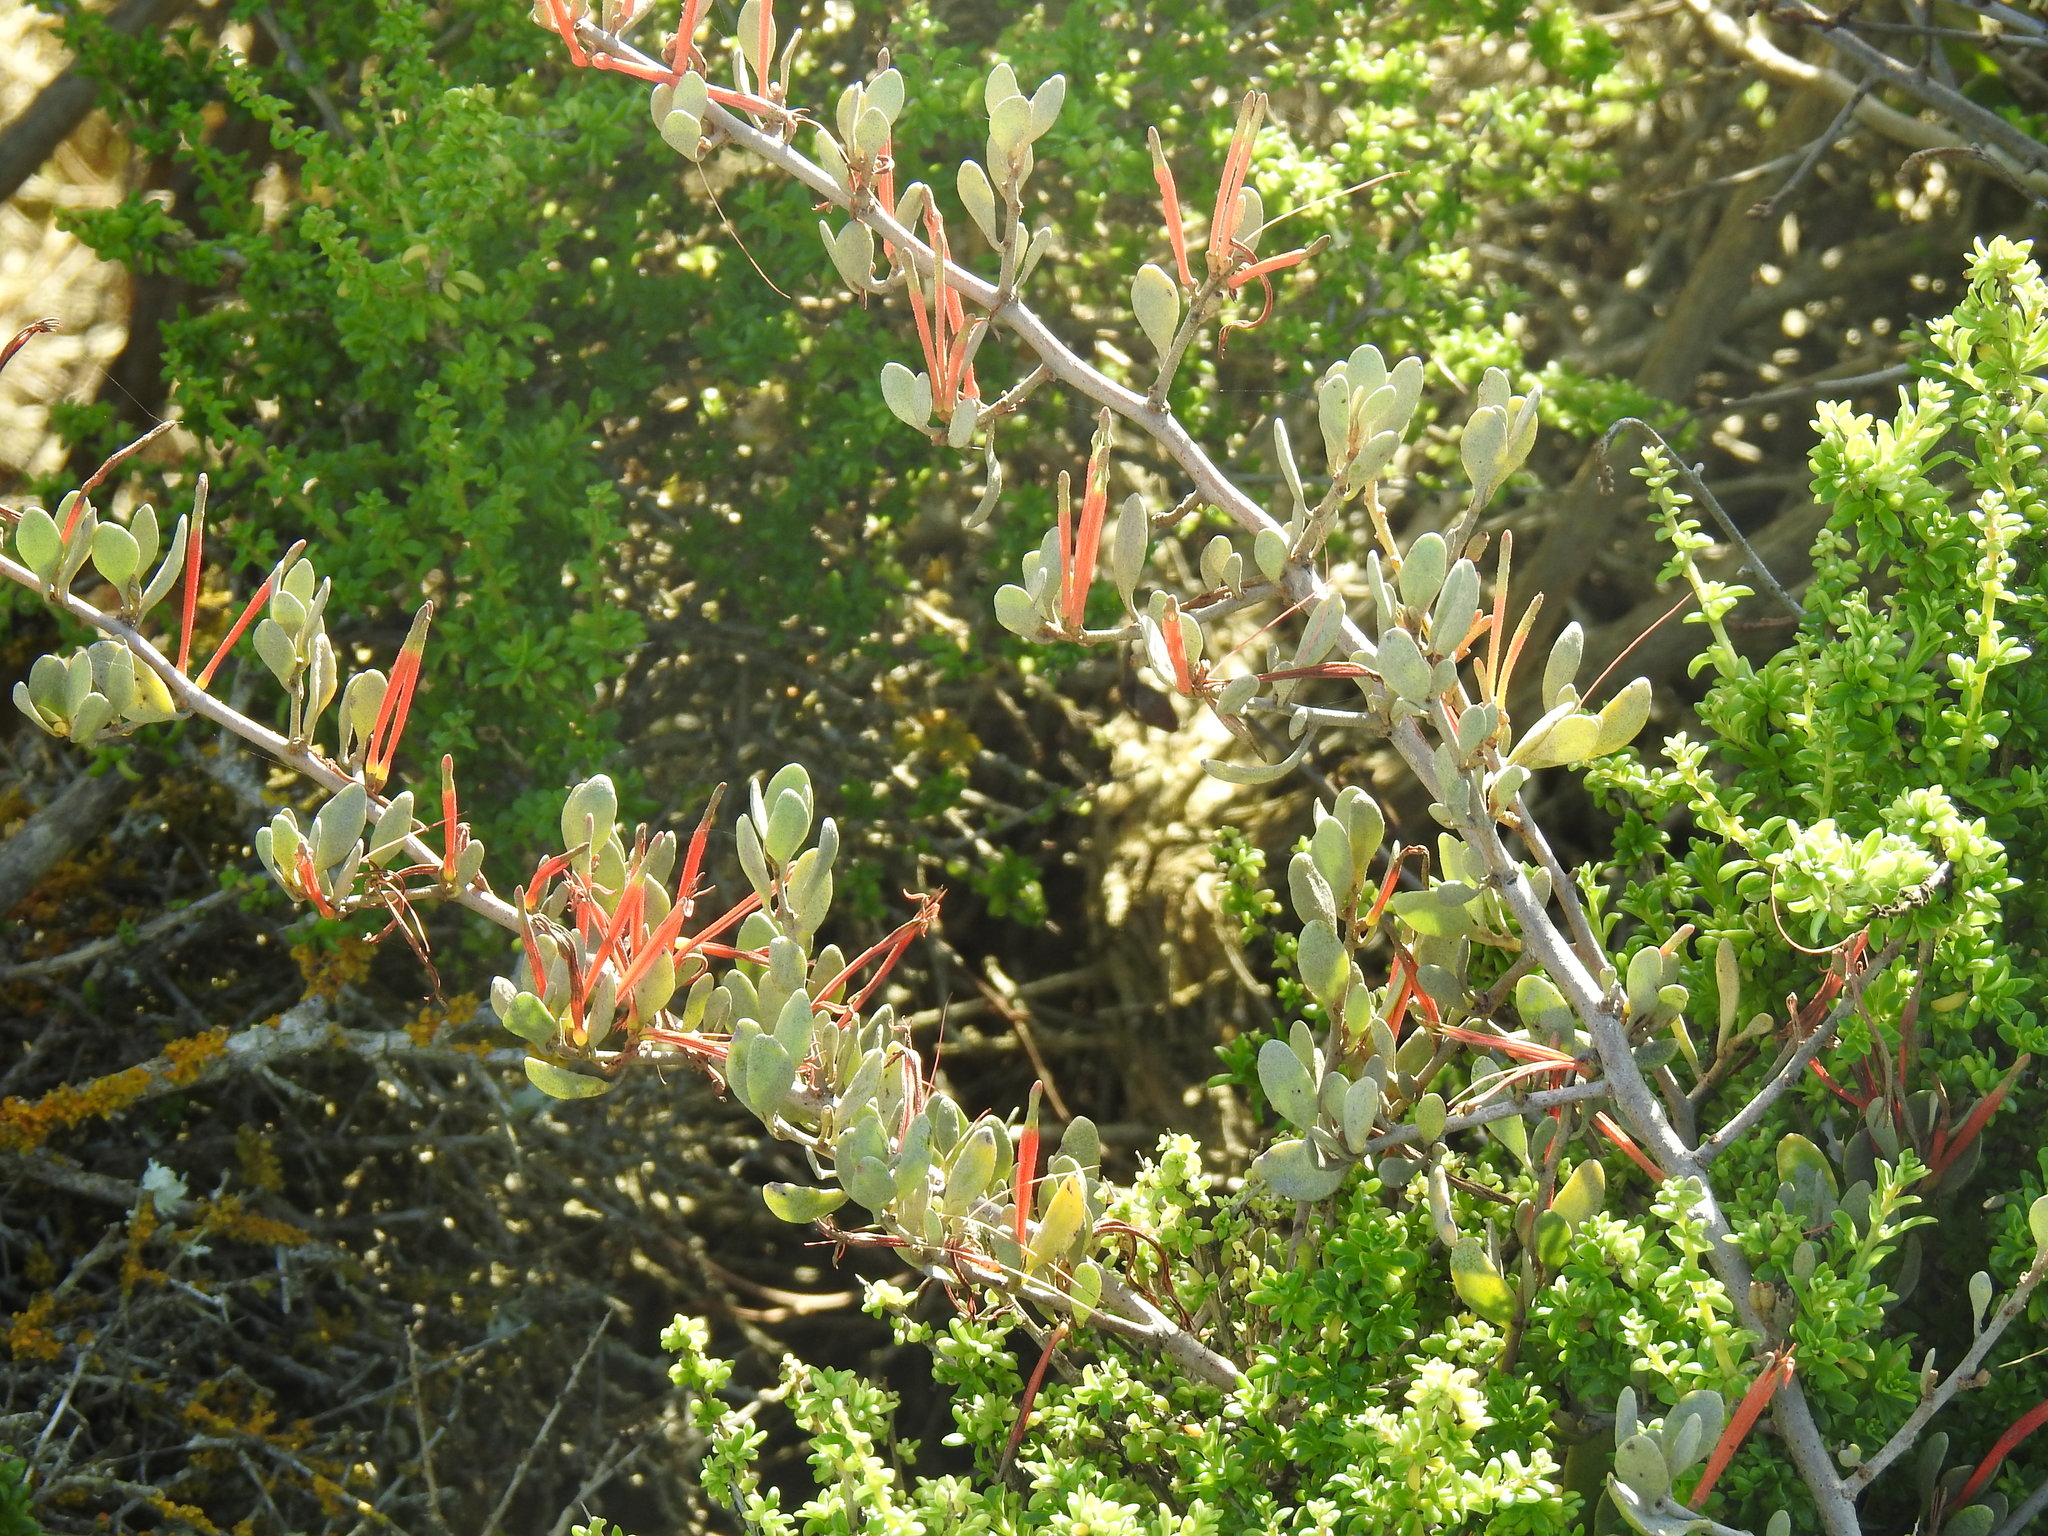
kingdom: Plantae
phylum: Tracheophyta
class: Magnoliopsida
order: Santalales
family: Loranthaceae
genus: Septulina
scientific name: Septulina glauca
